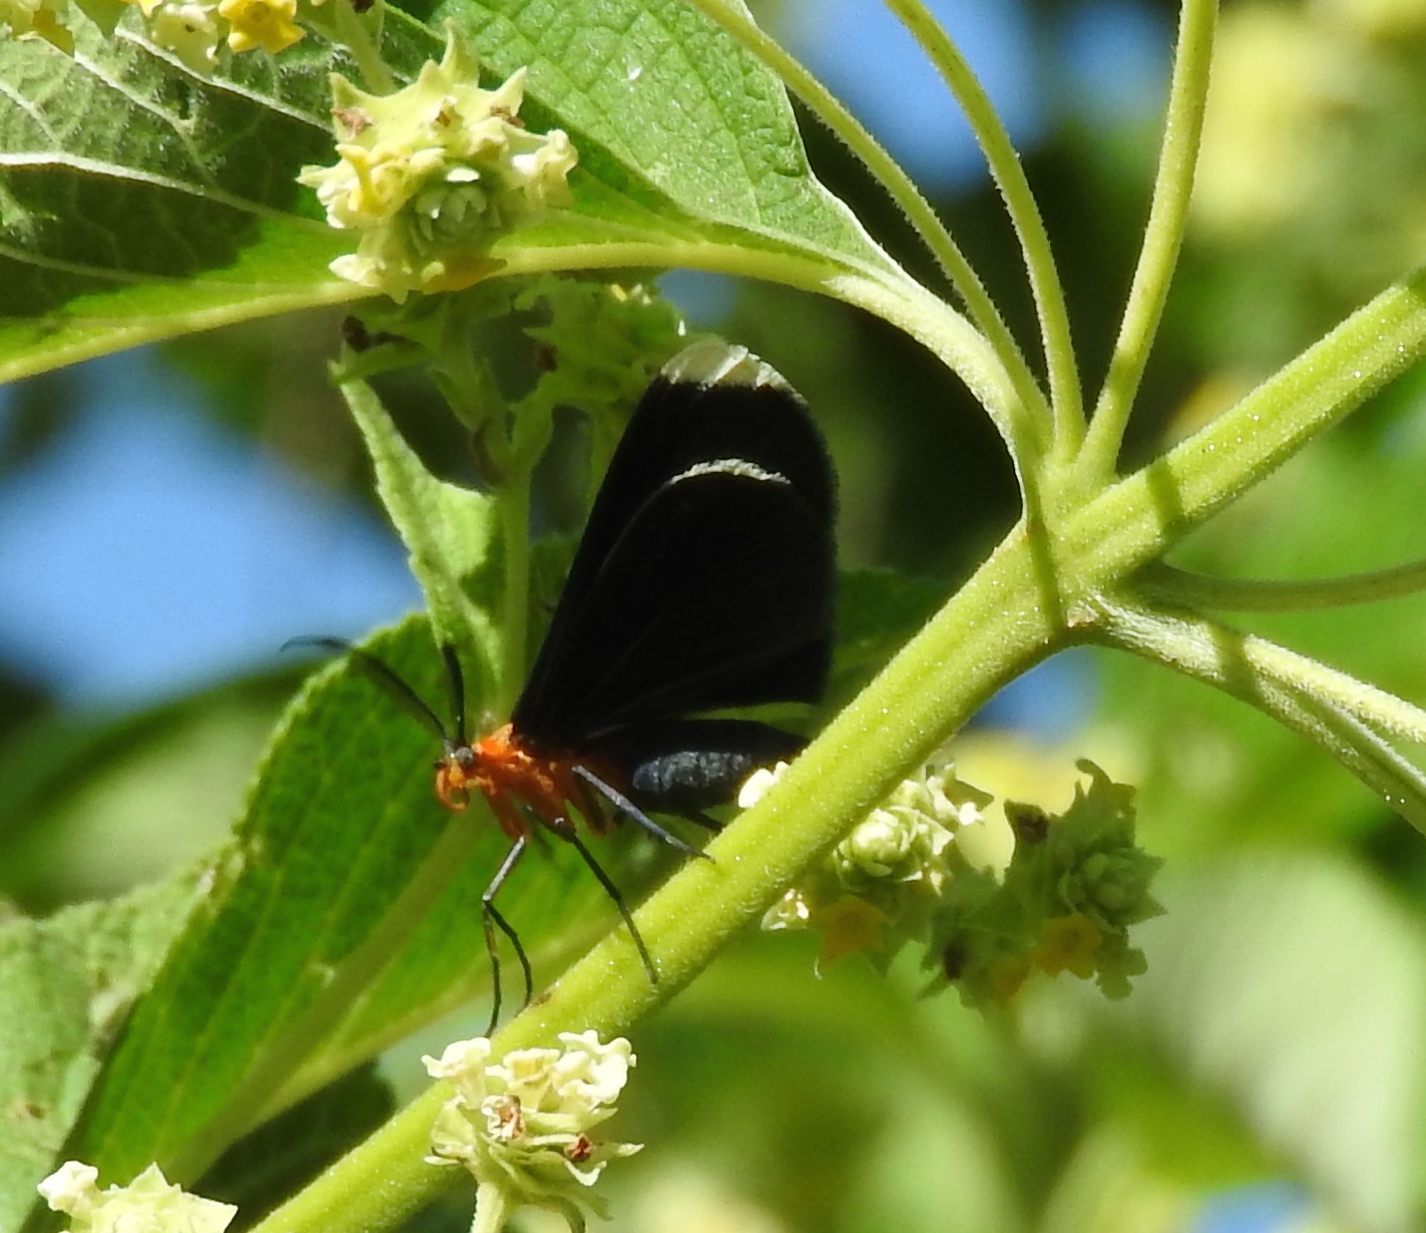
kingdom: Animalia
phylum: Arthropoda
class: Insecta
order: Lepidoptera
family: Geometridae
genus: Melanchroia
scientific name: Melanchroia chephise
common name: White-tipped black
